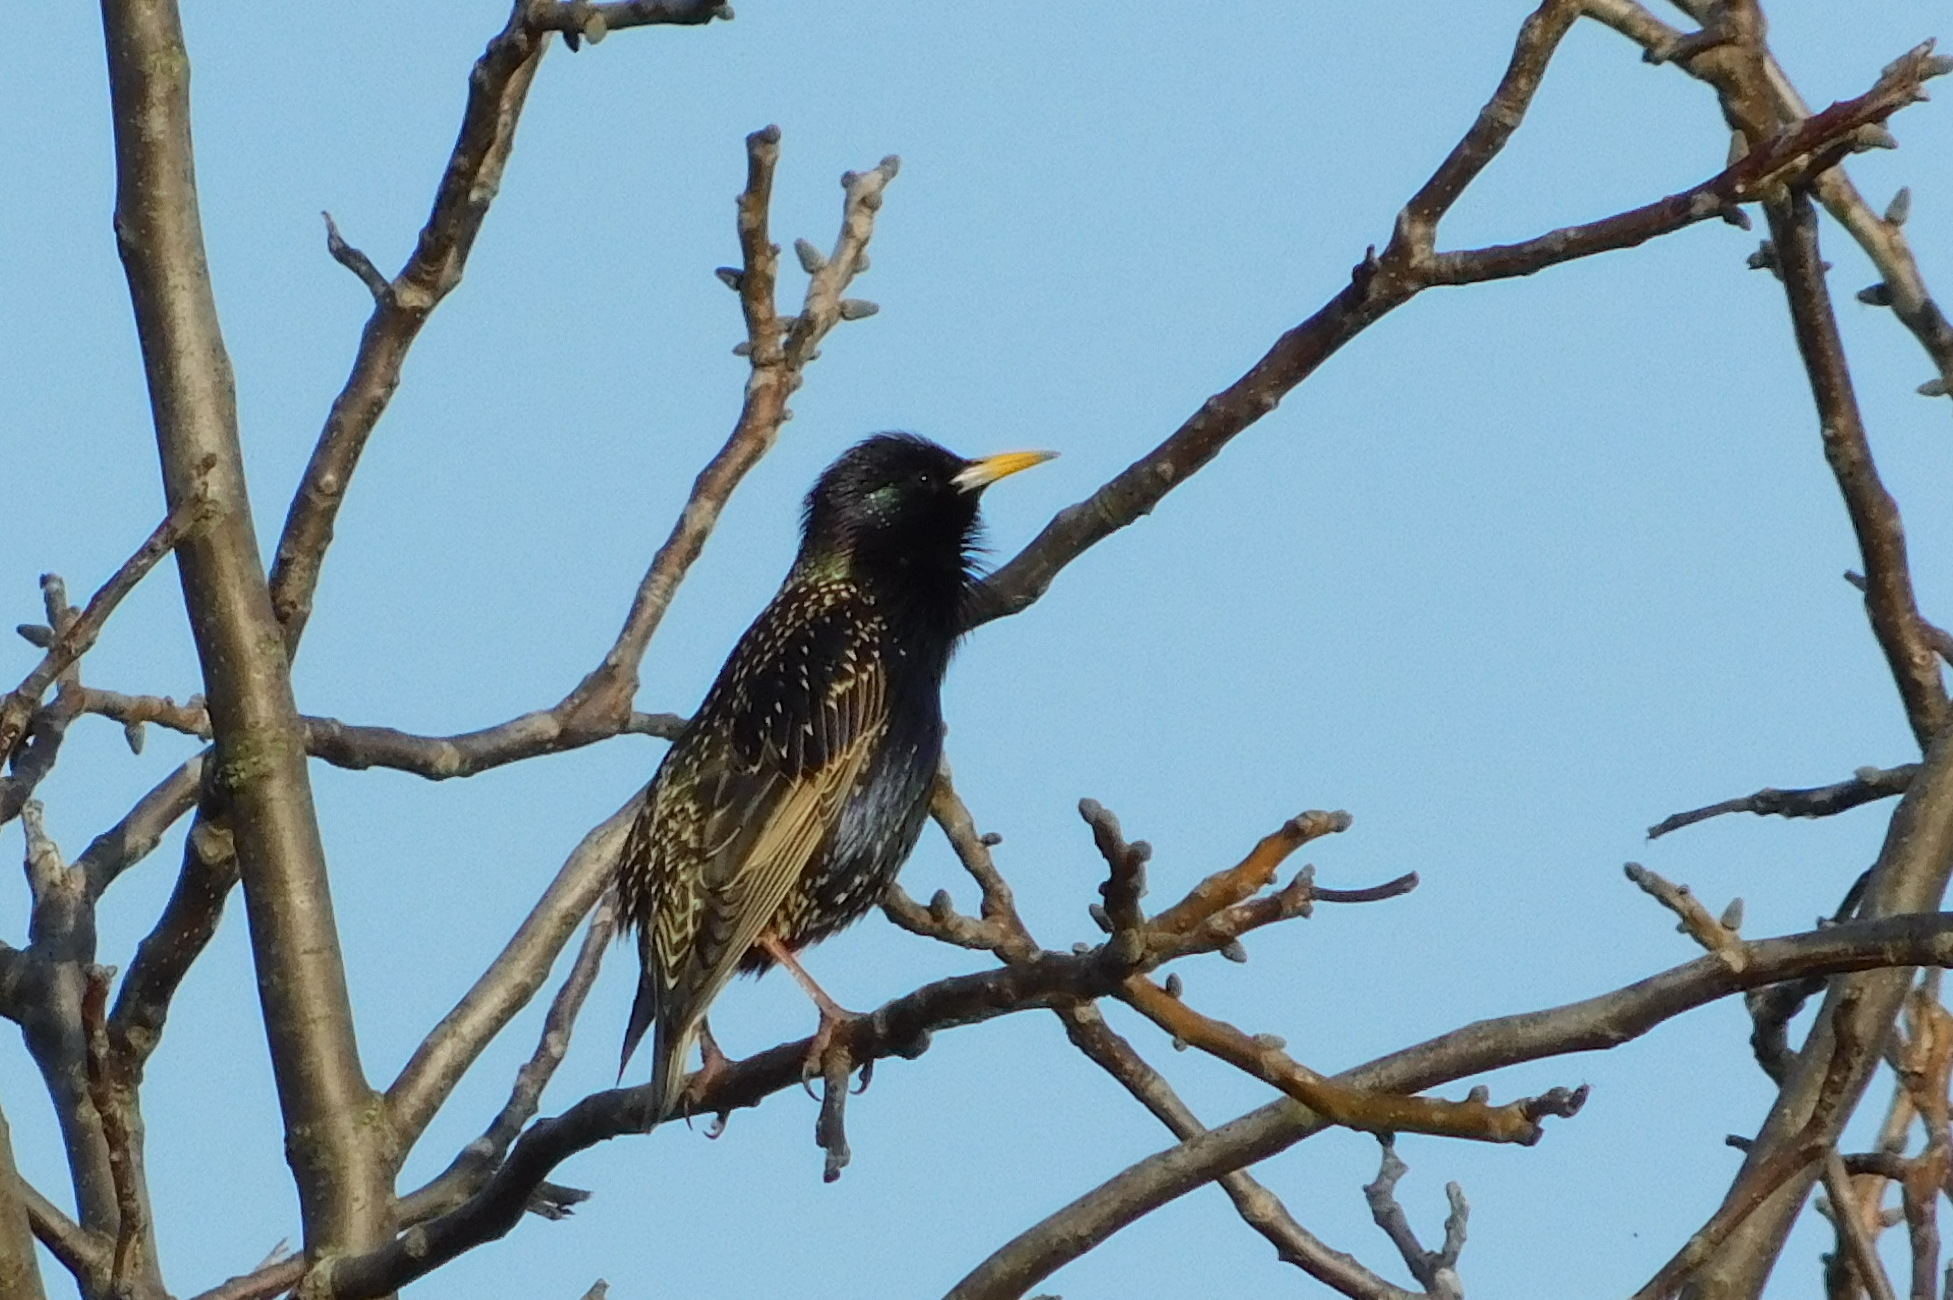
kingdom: Animalia
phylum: Chordata
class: Aves
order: Passeriformes
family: Sturnidae
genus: Sturnus
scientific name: Sturnus vulgaris
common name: Common starling
